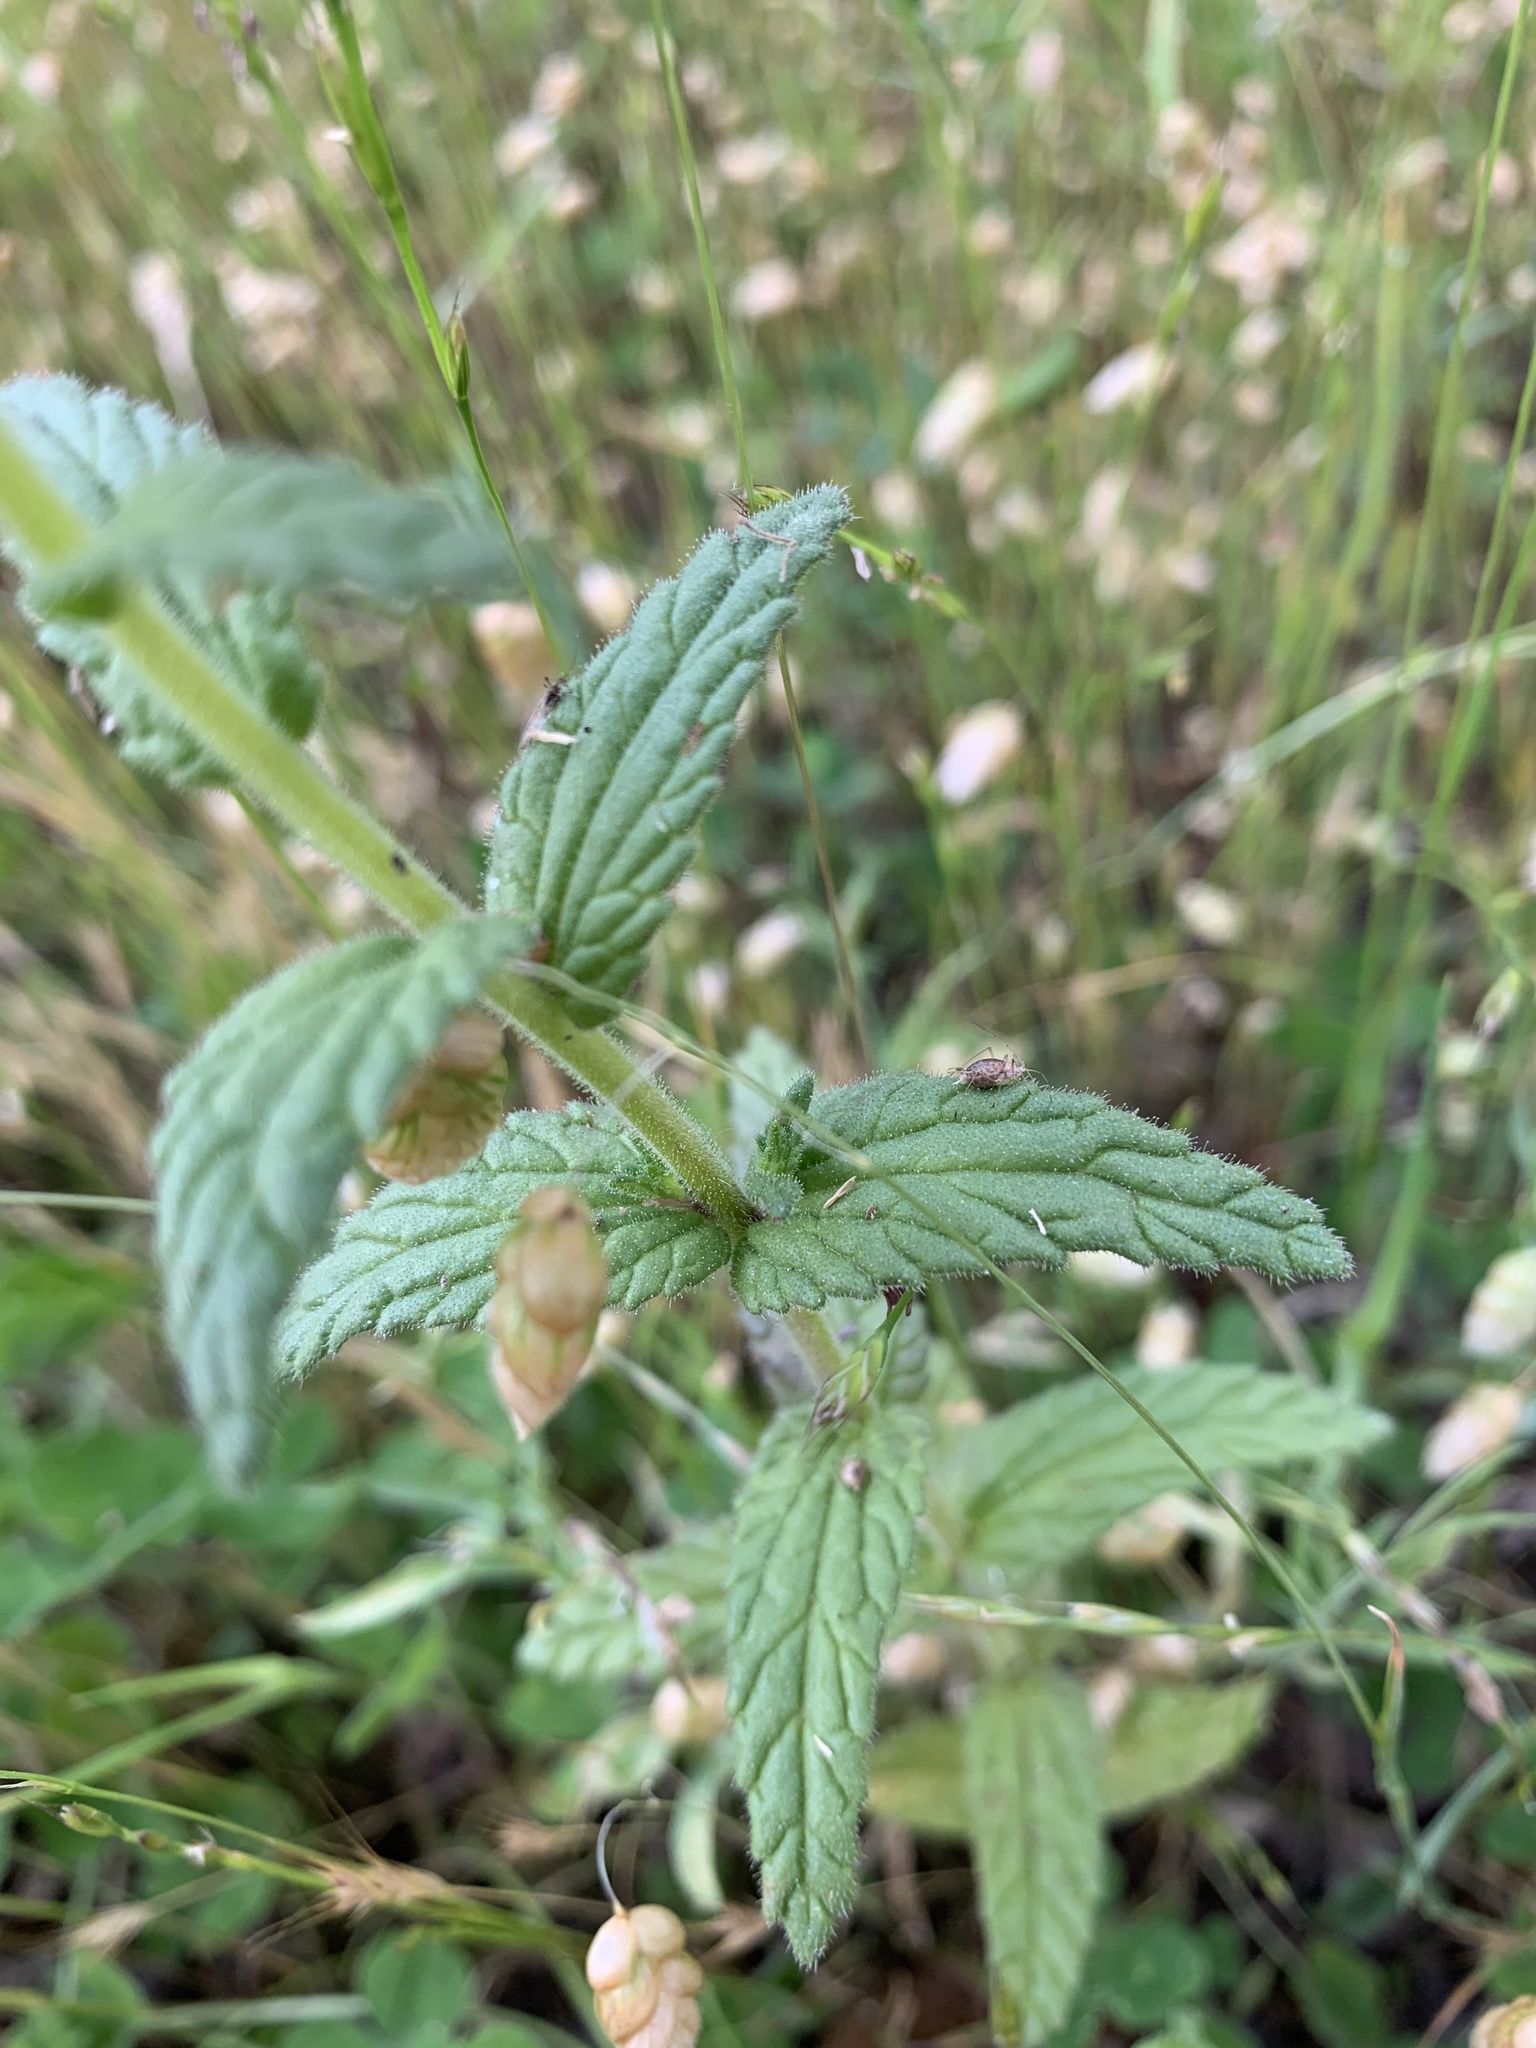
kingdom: Plantae
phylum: Tracheophyta
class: Magnoliopsida
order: Lamiales
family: Orobanchaceae
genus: Bellardia
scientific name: Bellardia viscosa
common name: Sticky parentucellia
